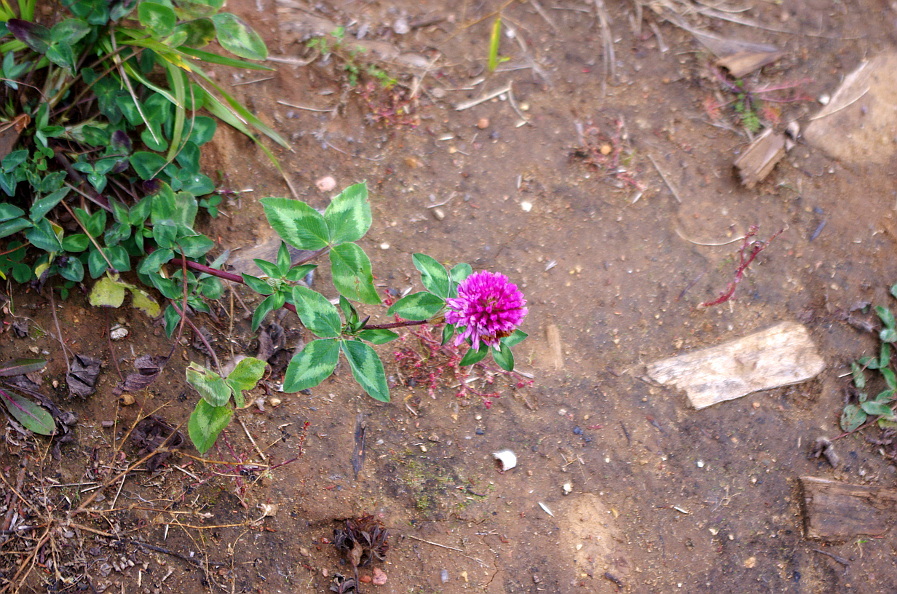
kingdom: Plantae
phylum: Tracheophyta
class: Magnoliopsida
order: Fabales
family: Fabaceae
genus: Trifolium
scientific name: Trifolium pratense
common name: Red clover
